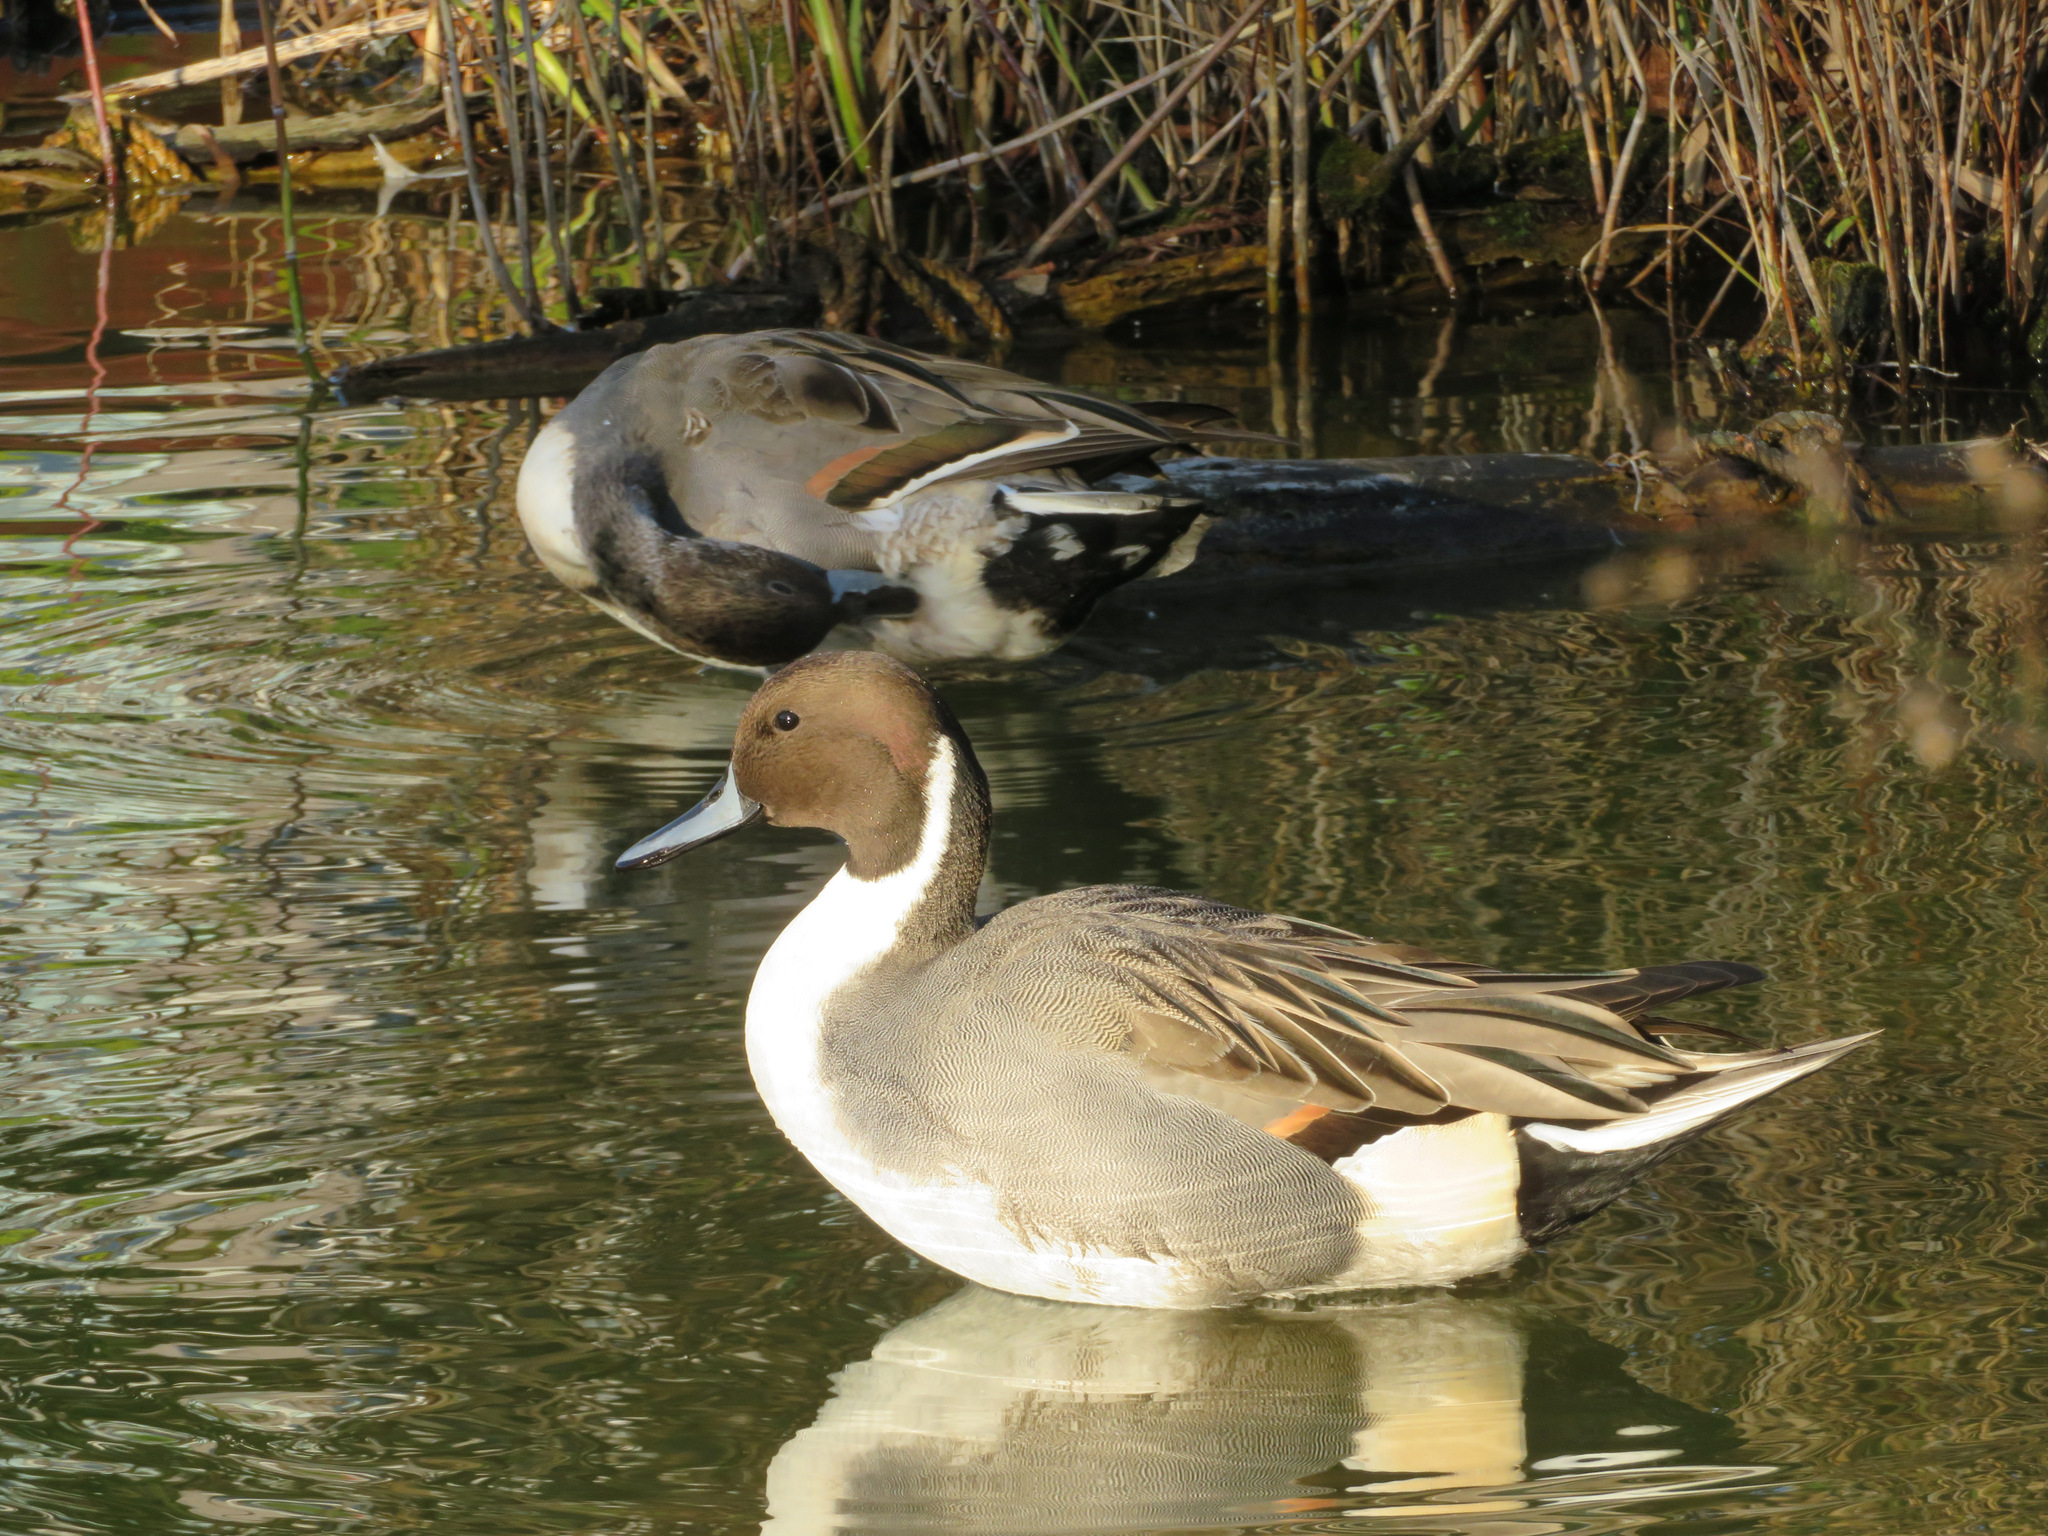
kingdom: Animalia
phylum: Chordata
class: Aves
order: Anseriformes
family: Anatidae
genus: Anas
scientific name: Anas acuta
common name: Northern pintail
